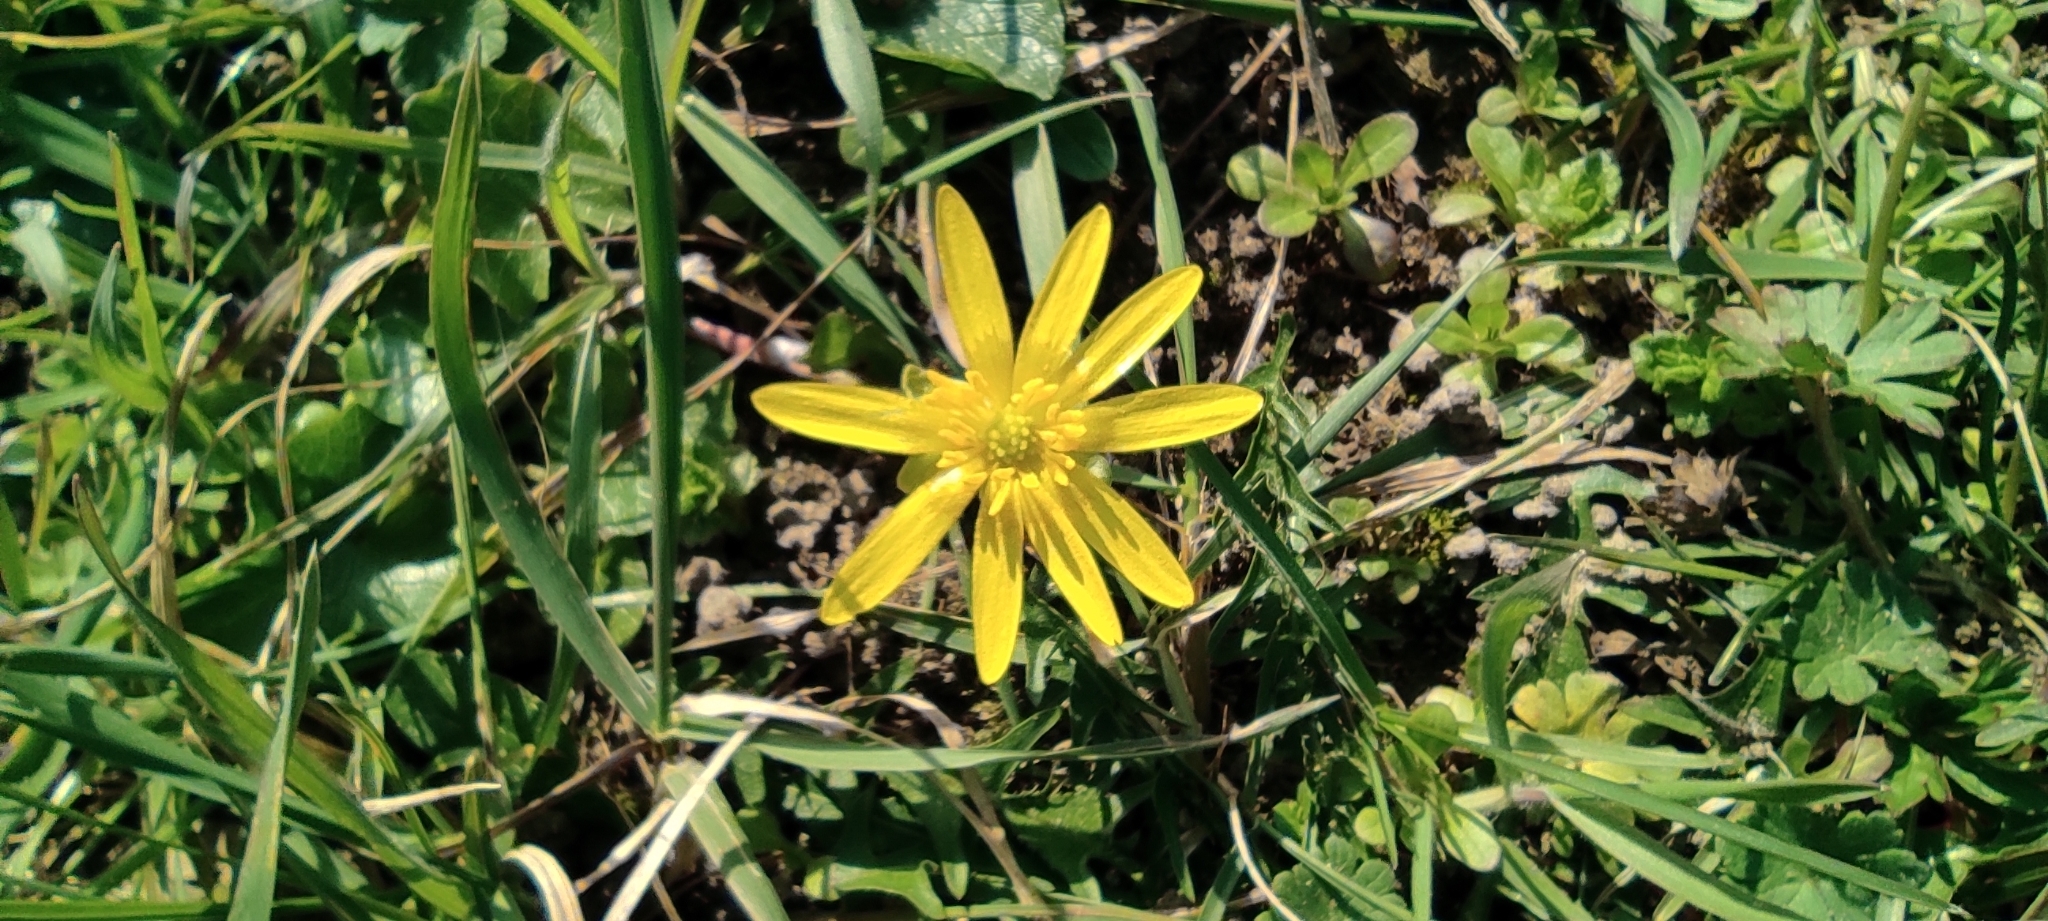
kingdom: Plantae
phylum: Tracheophyta
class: Magnoliopsida
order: Ranunculales
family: Ranunculaceae
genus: Ficaria
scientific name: Ficaria verna
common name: Lesser celandine
